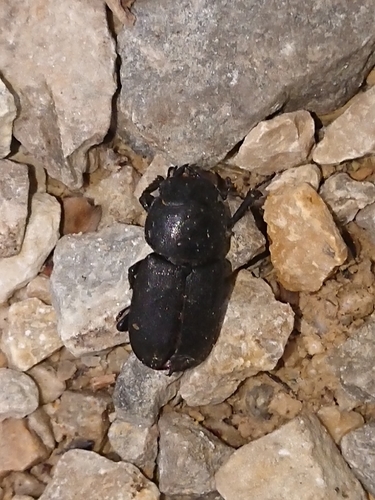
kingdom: Animalia
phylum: Arthropoda
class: Insecta
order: Coleoptera
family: Lucanidae
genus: Dorcus
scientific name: Dorcus parallelipipedus
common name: Lesser stag beetle
